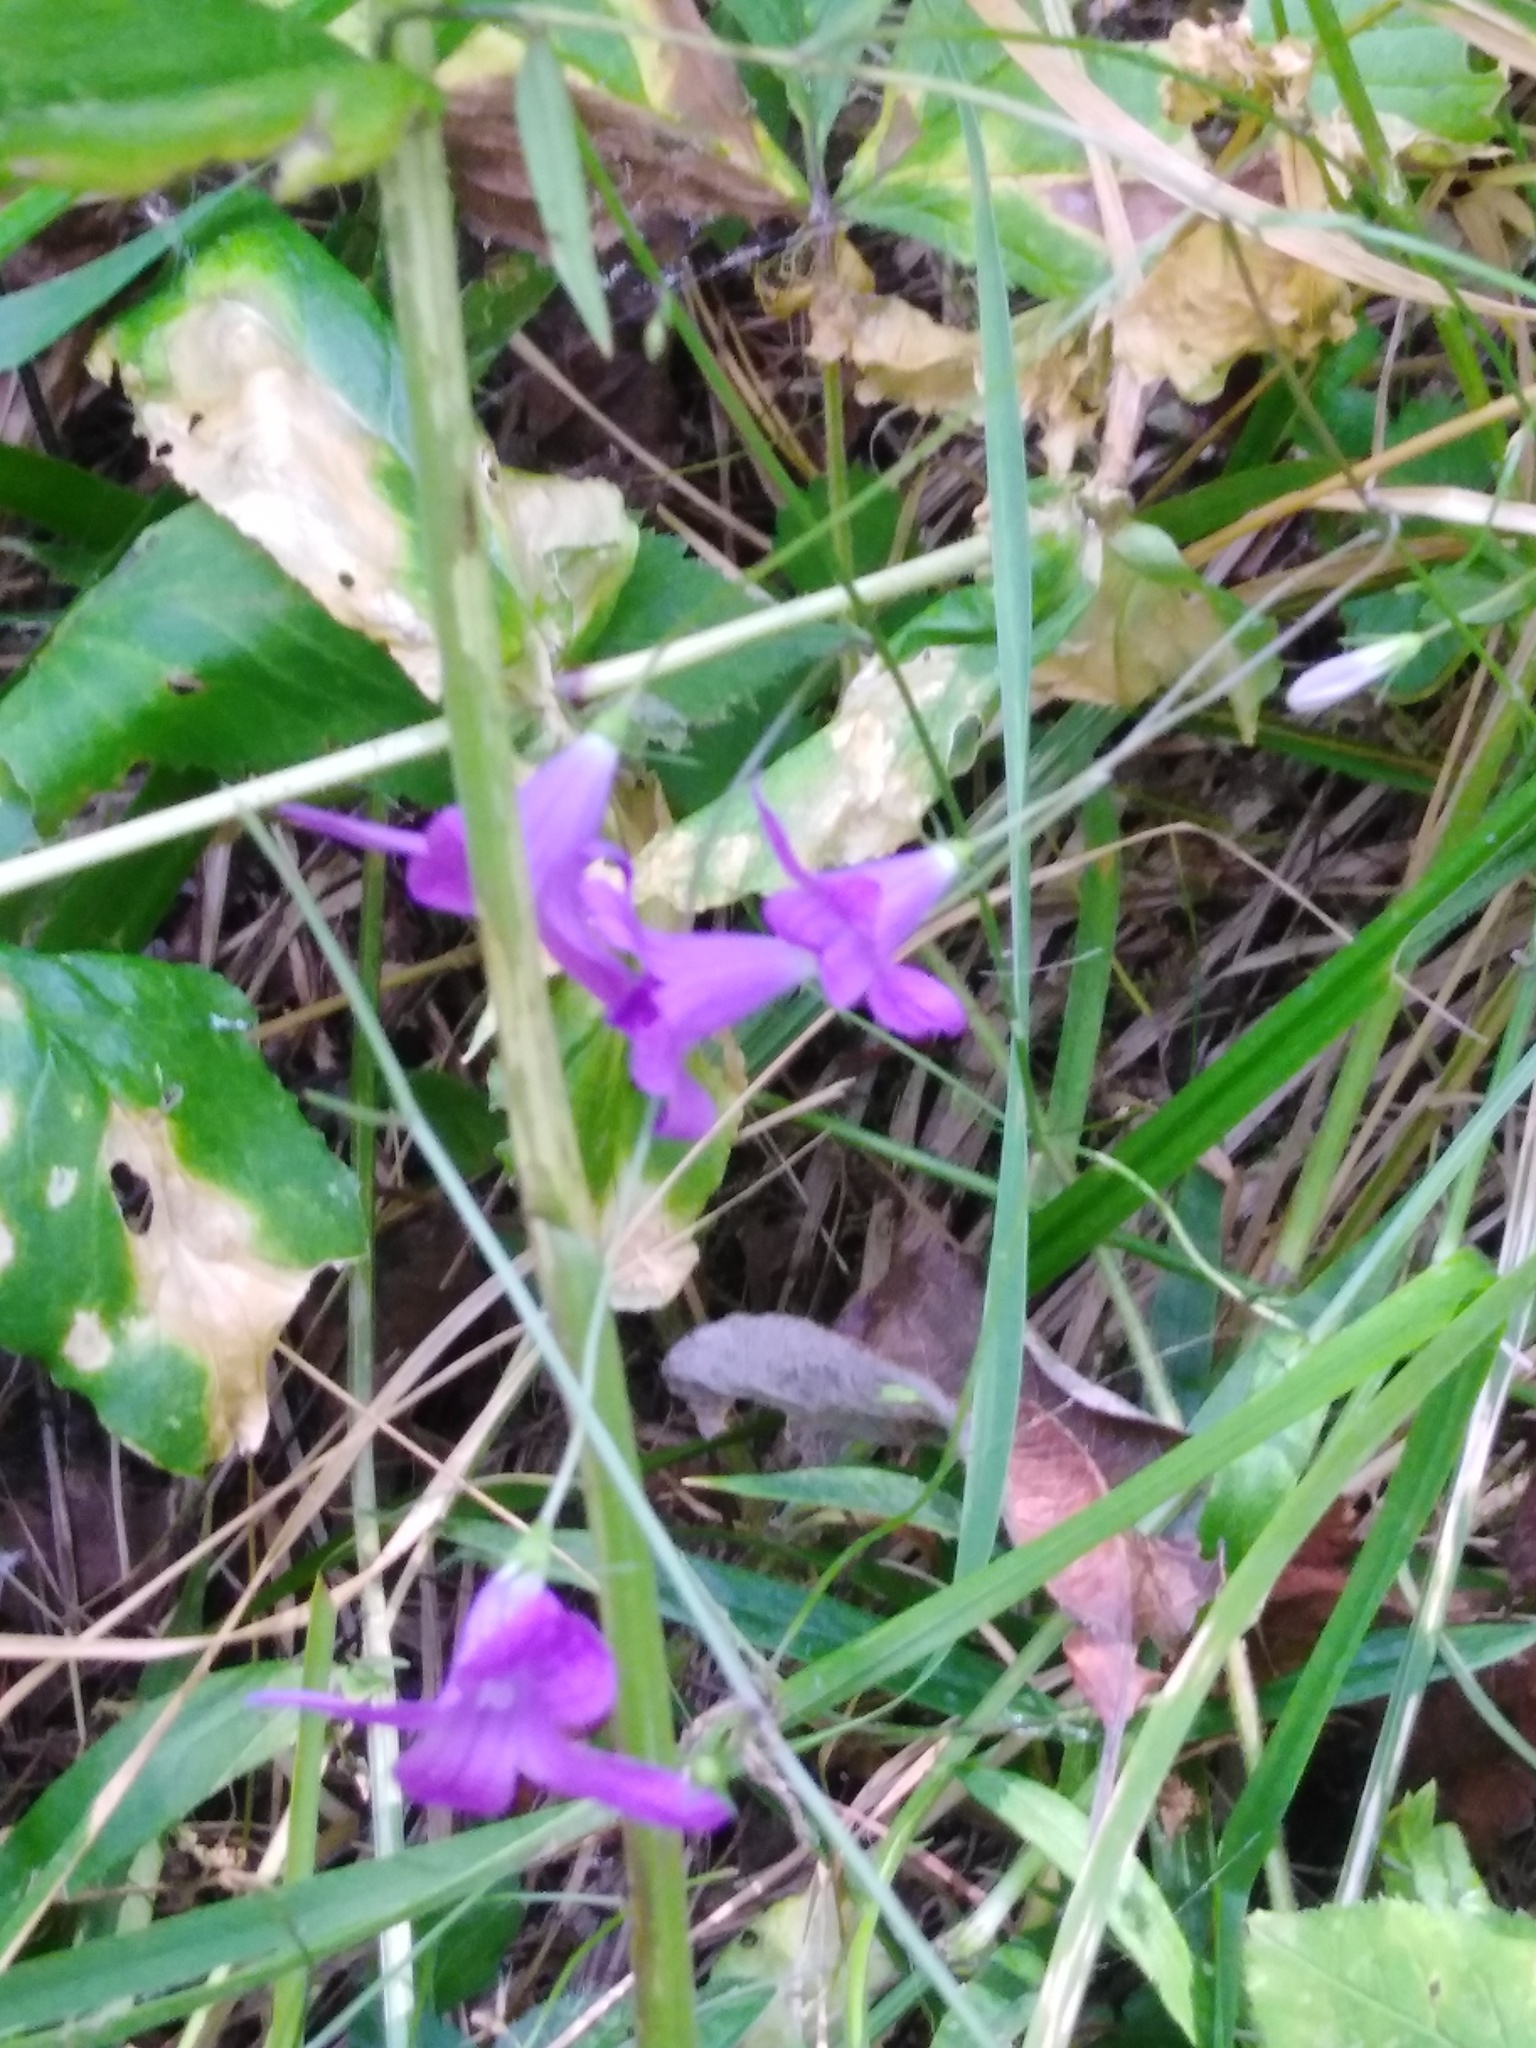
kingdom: Plantae
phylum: Tracheophyta
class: Magnoliopsida
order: Asterales
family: Campanulaceae
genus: Campanula
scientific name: Campanula patula
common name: Spreading bellflower
